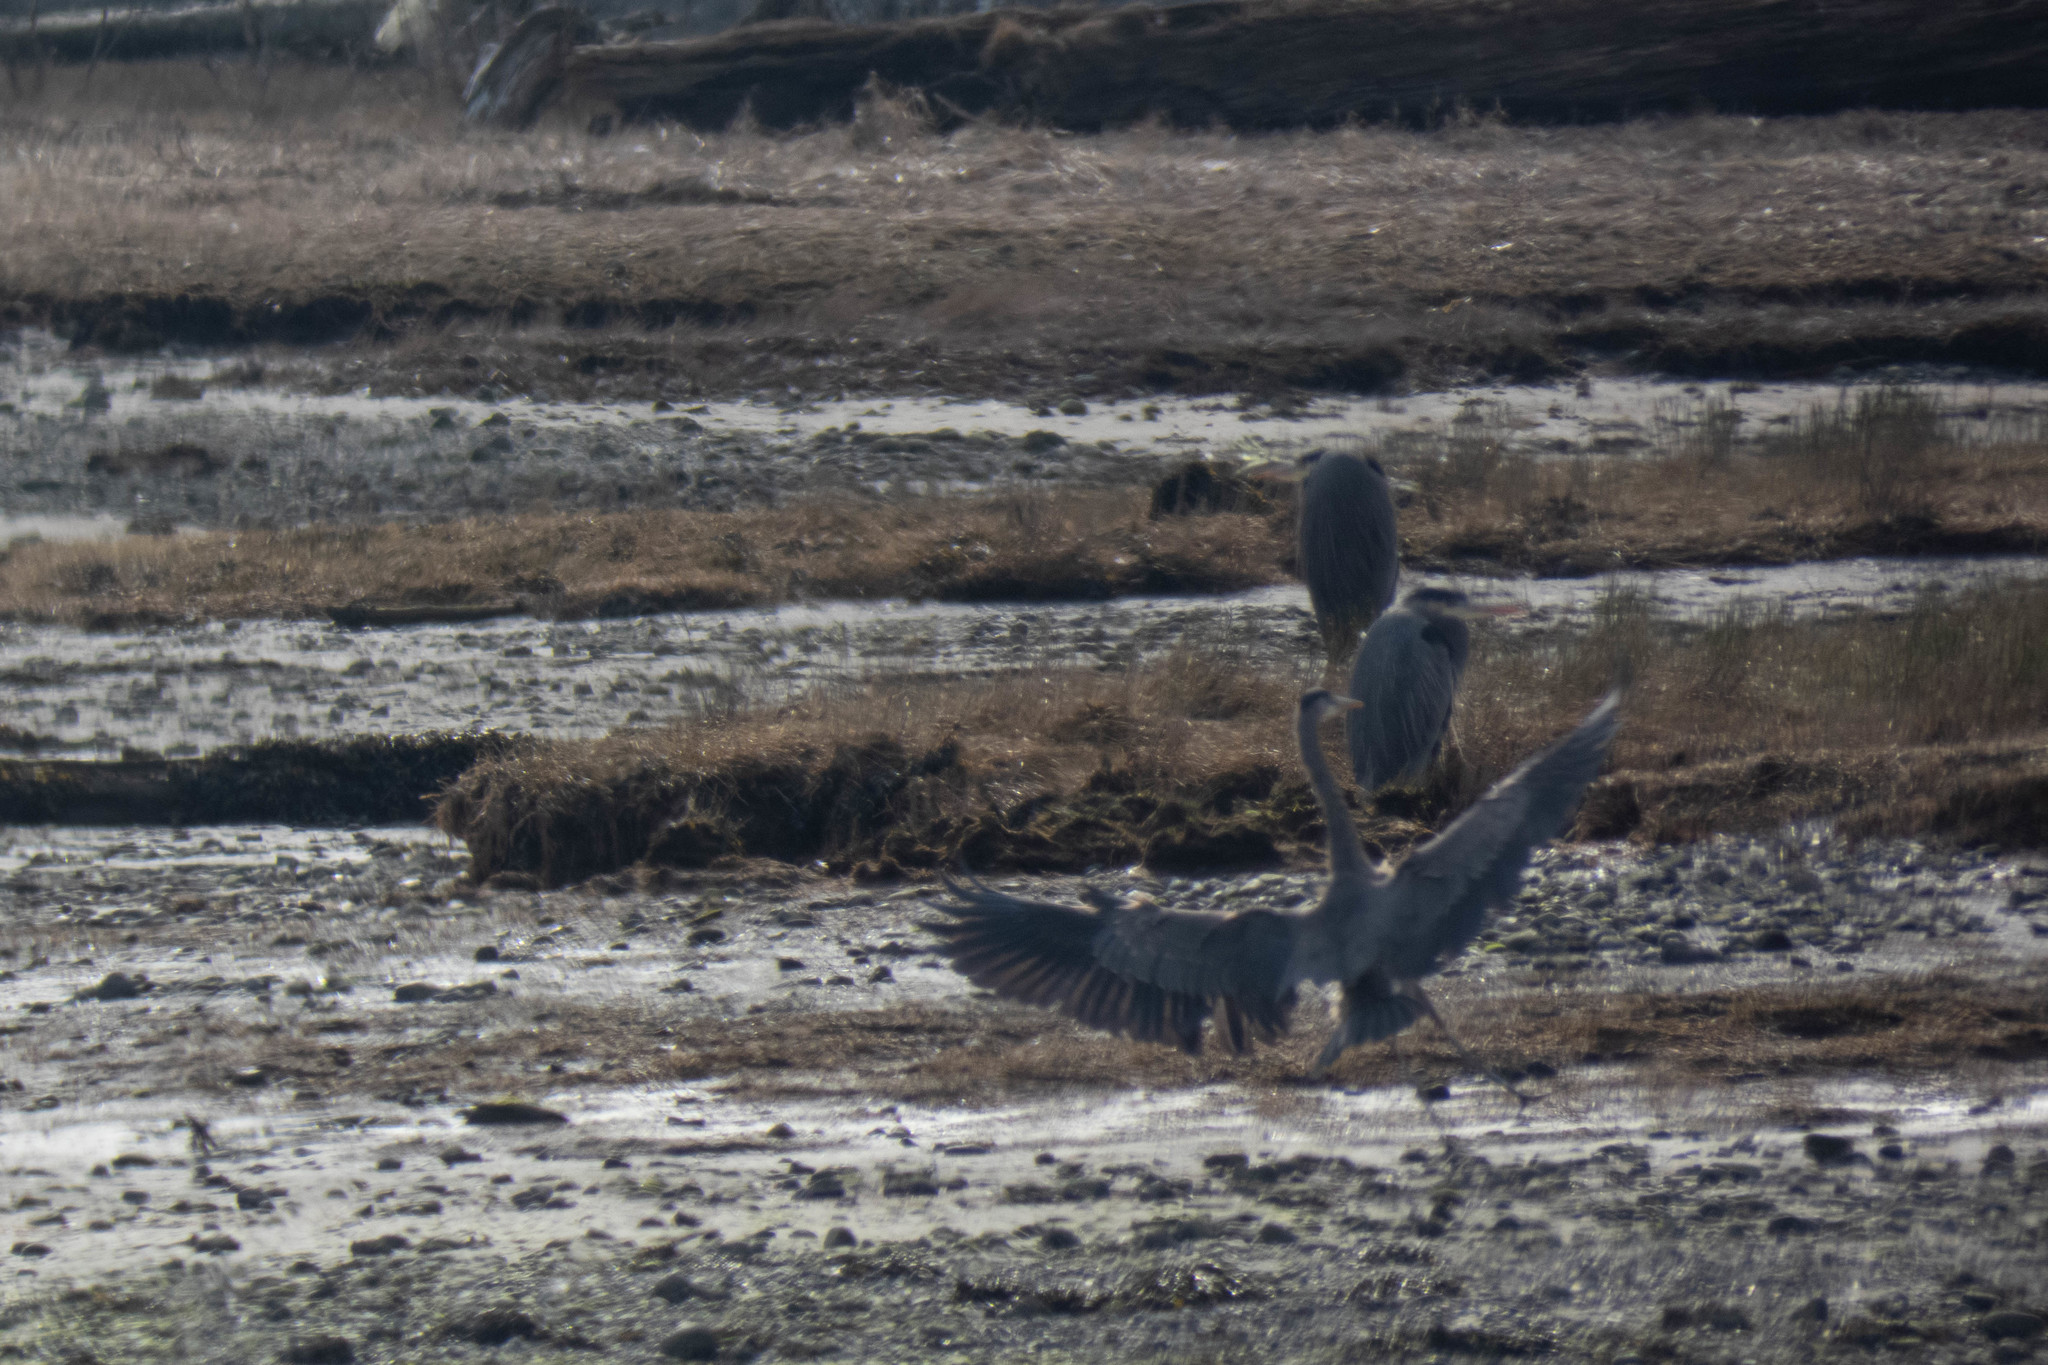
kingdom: Animalia
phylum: Chordata
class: Aves
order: Pelecaniformes
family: Ardeidae
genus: Ardea
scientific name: Ardea herodias
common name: Great blue heron
